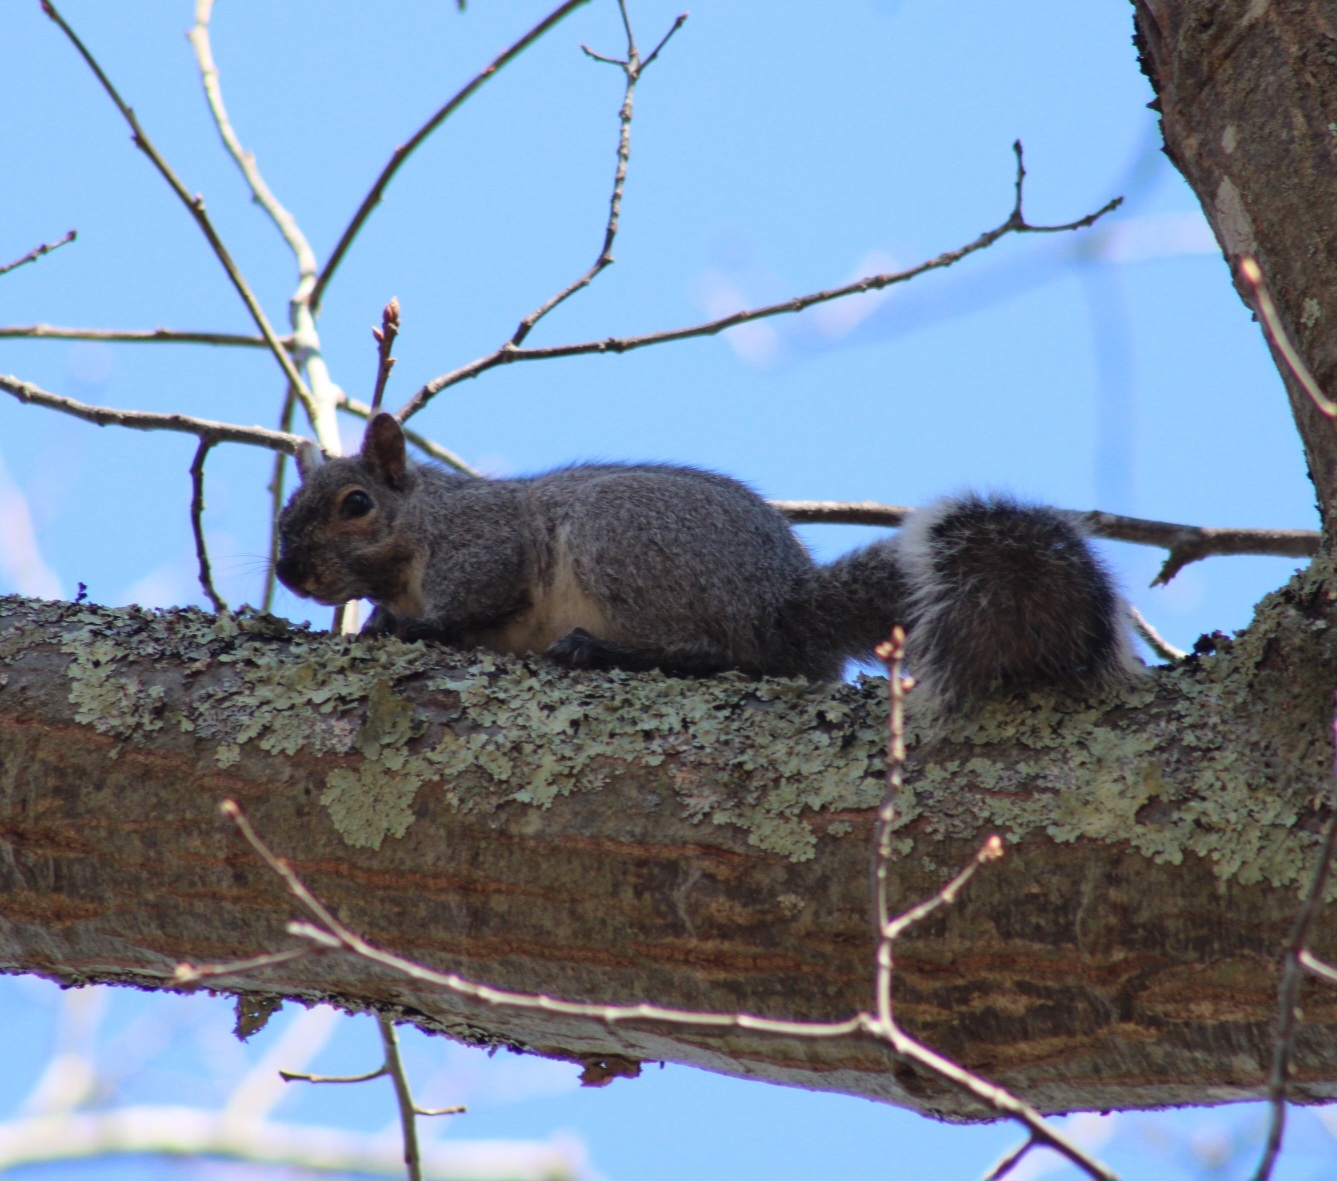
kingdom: Animalia
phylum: Chordata
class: Mammalia
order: Rodentia
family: Sciuridae
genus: Sciurus
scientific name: Sciurus carolinensis
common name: Eastern gray squirrel
